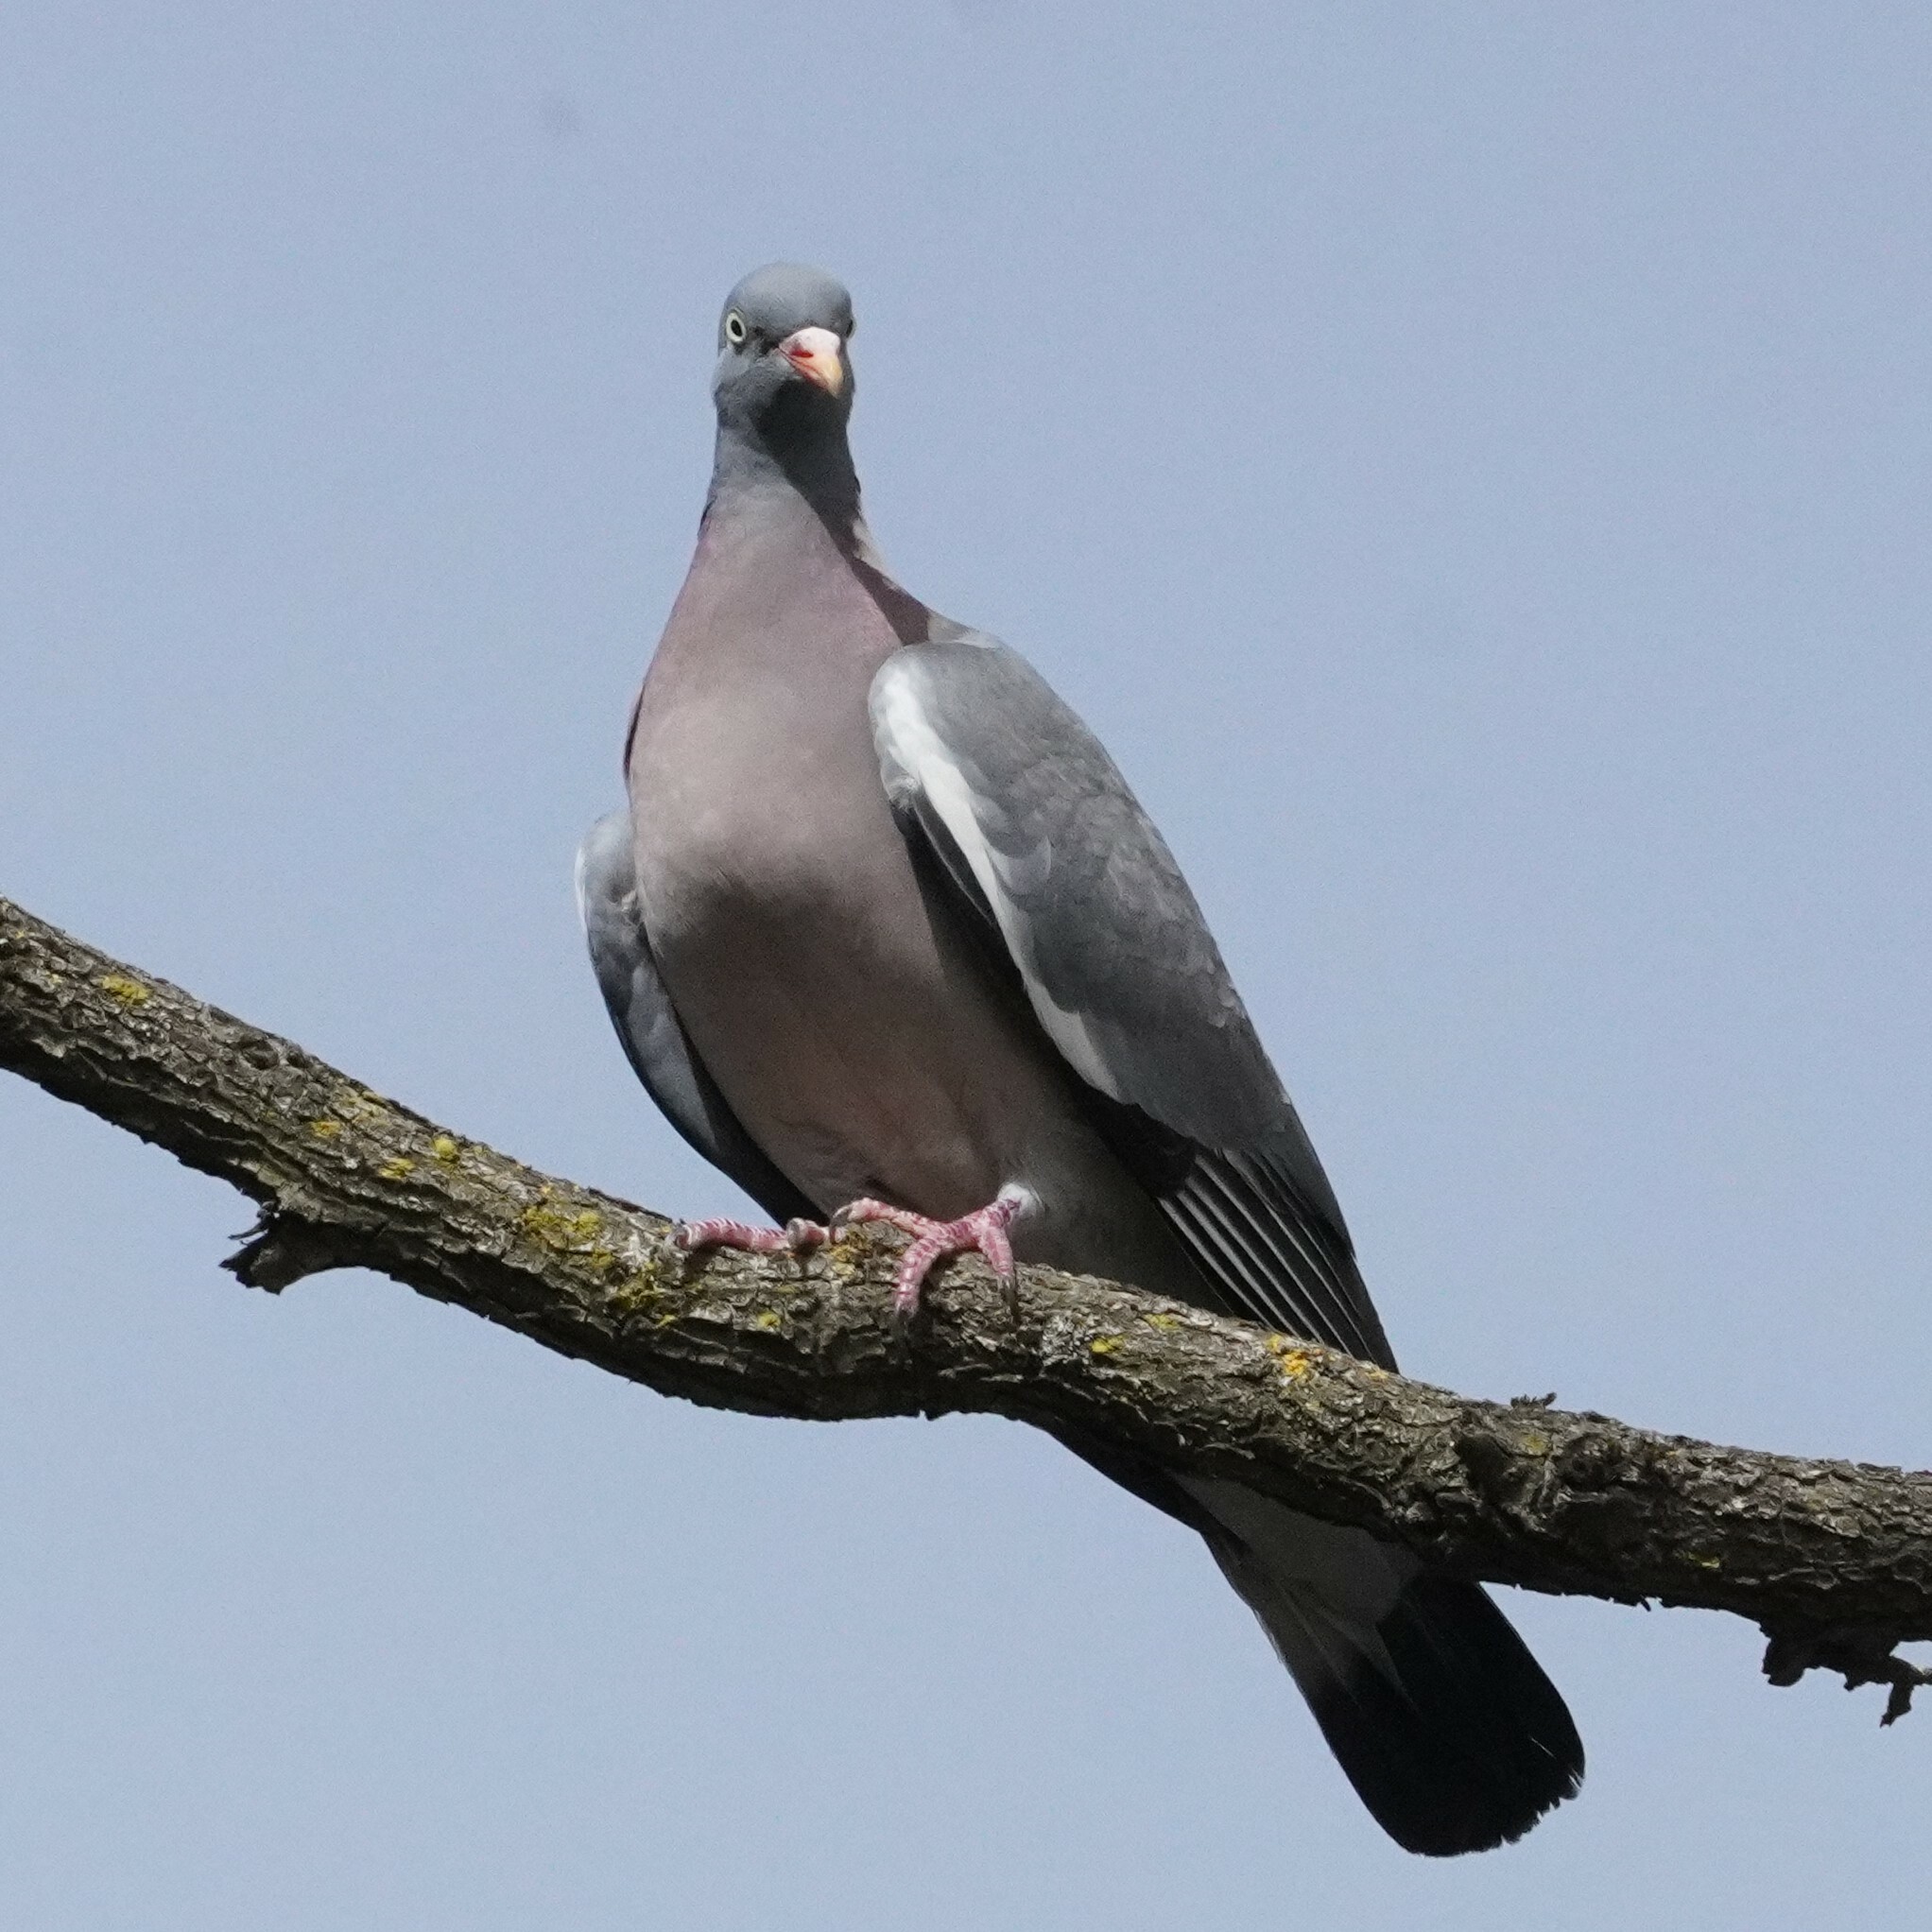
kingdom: Animalia
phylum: Chordata
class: Aves
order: Columbiformes
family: Columbidae
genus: Columba
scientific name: Columba palumbus
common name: Common wood pigeon
